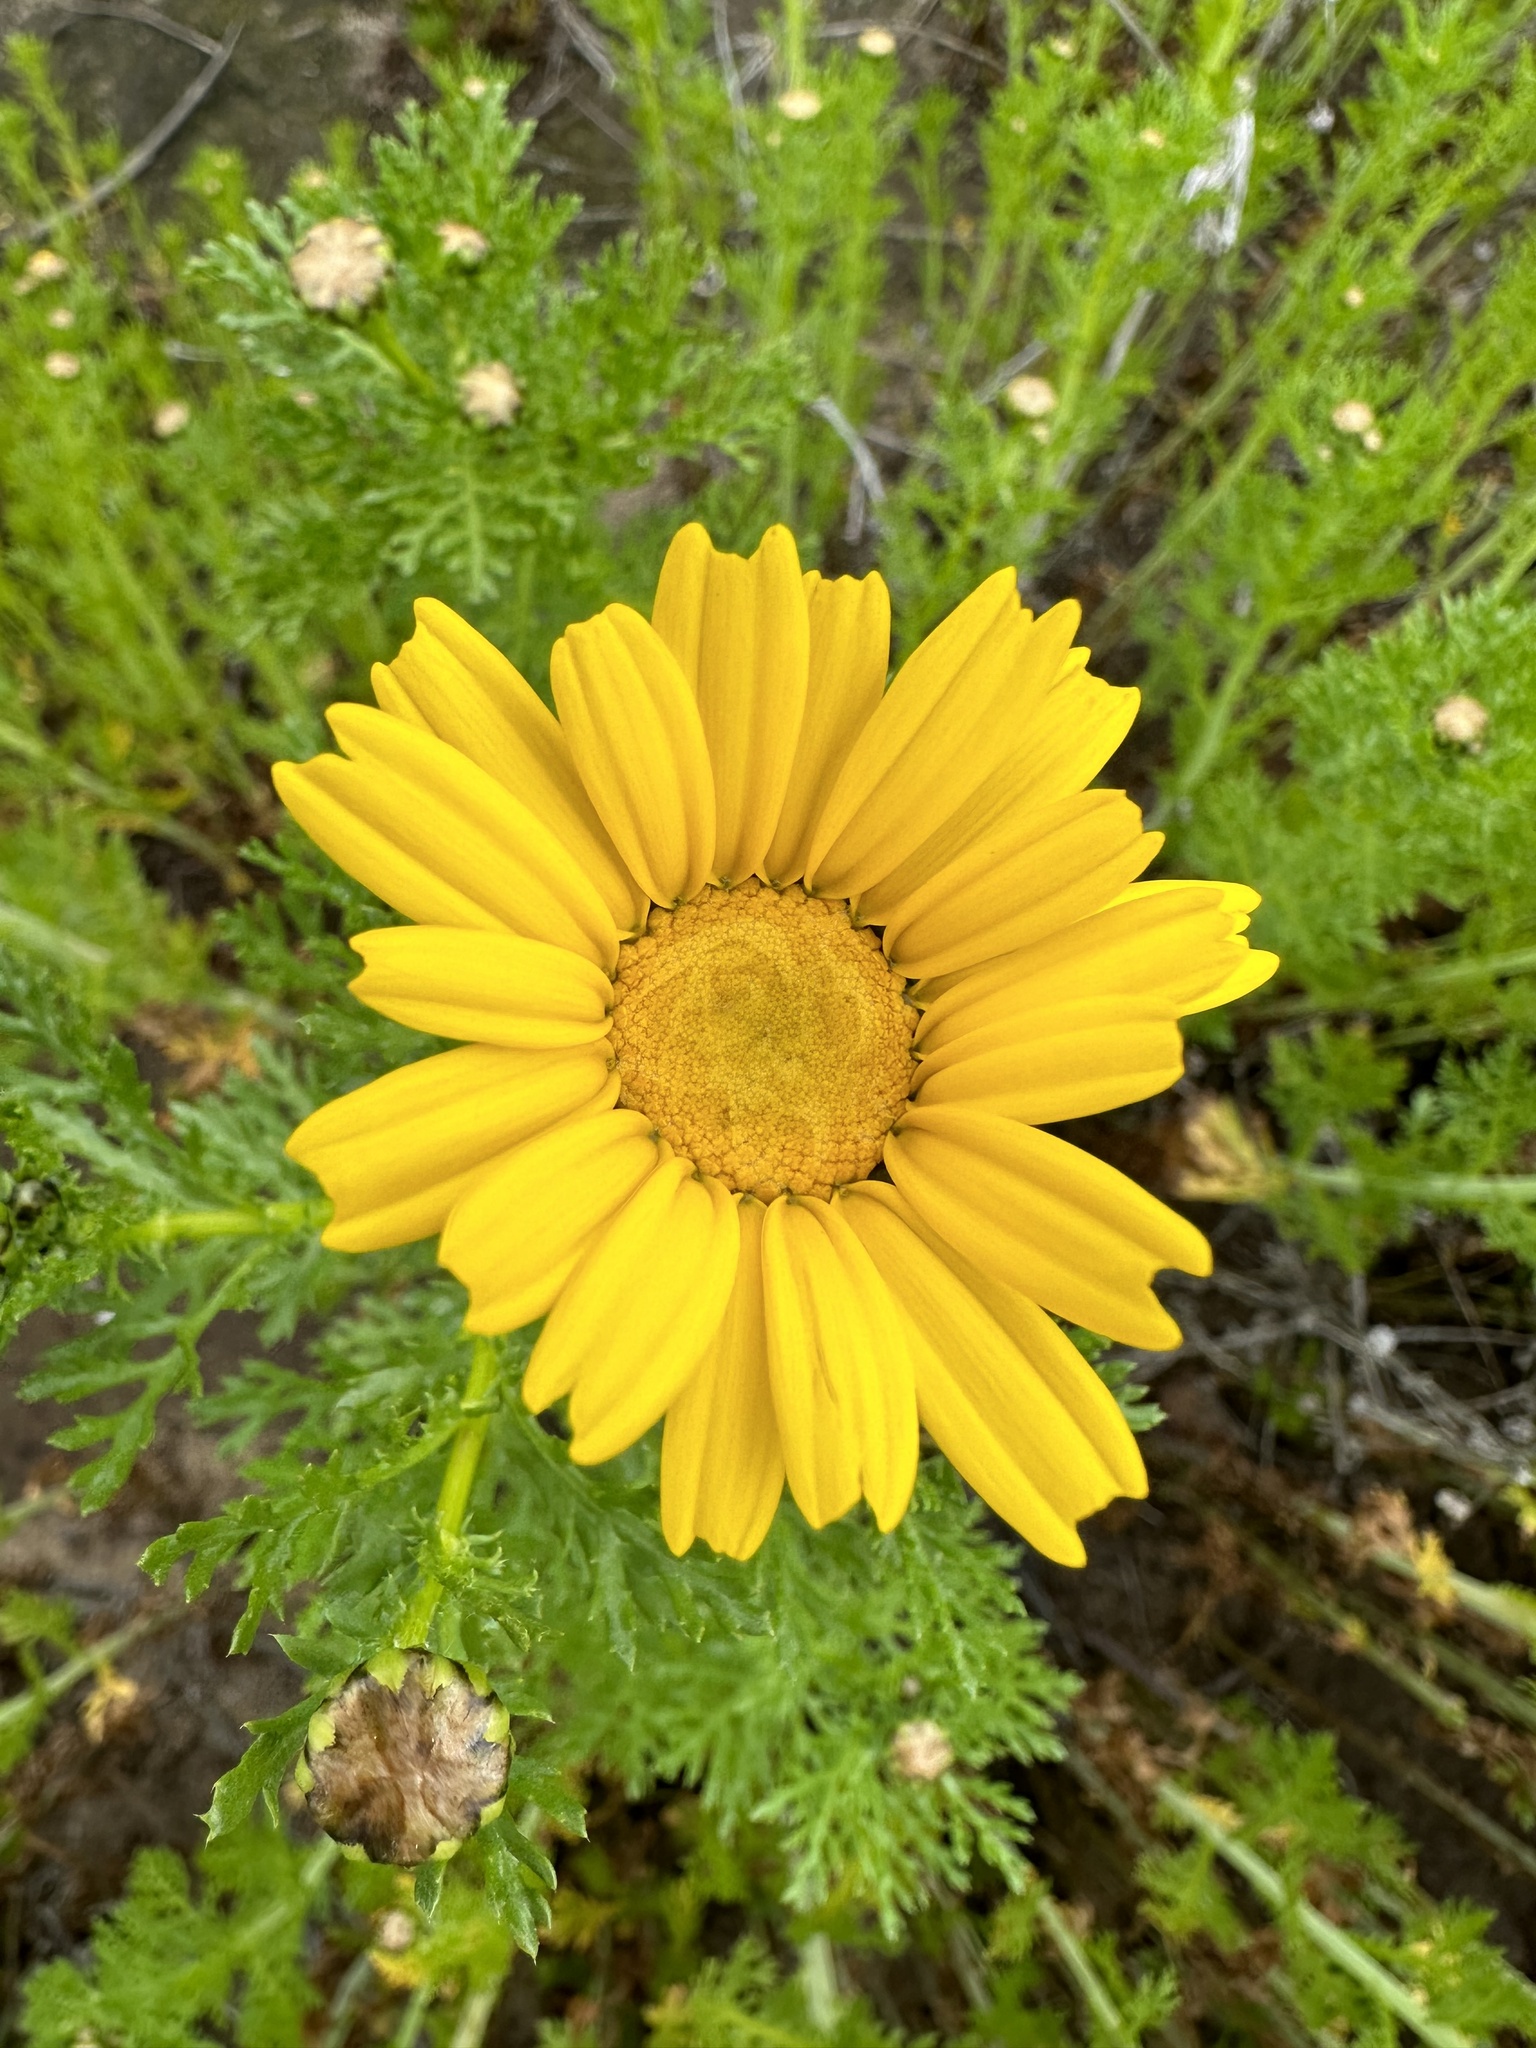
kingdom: Plantae
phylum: Tracheophyta
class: Magnoliopsida
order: Asterales
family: Asteraceae
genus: Glebionis
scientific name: Glebionis coronaria
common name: Crowndaisy
